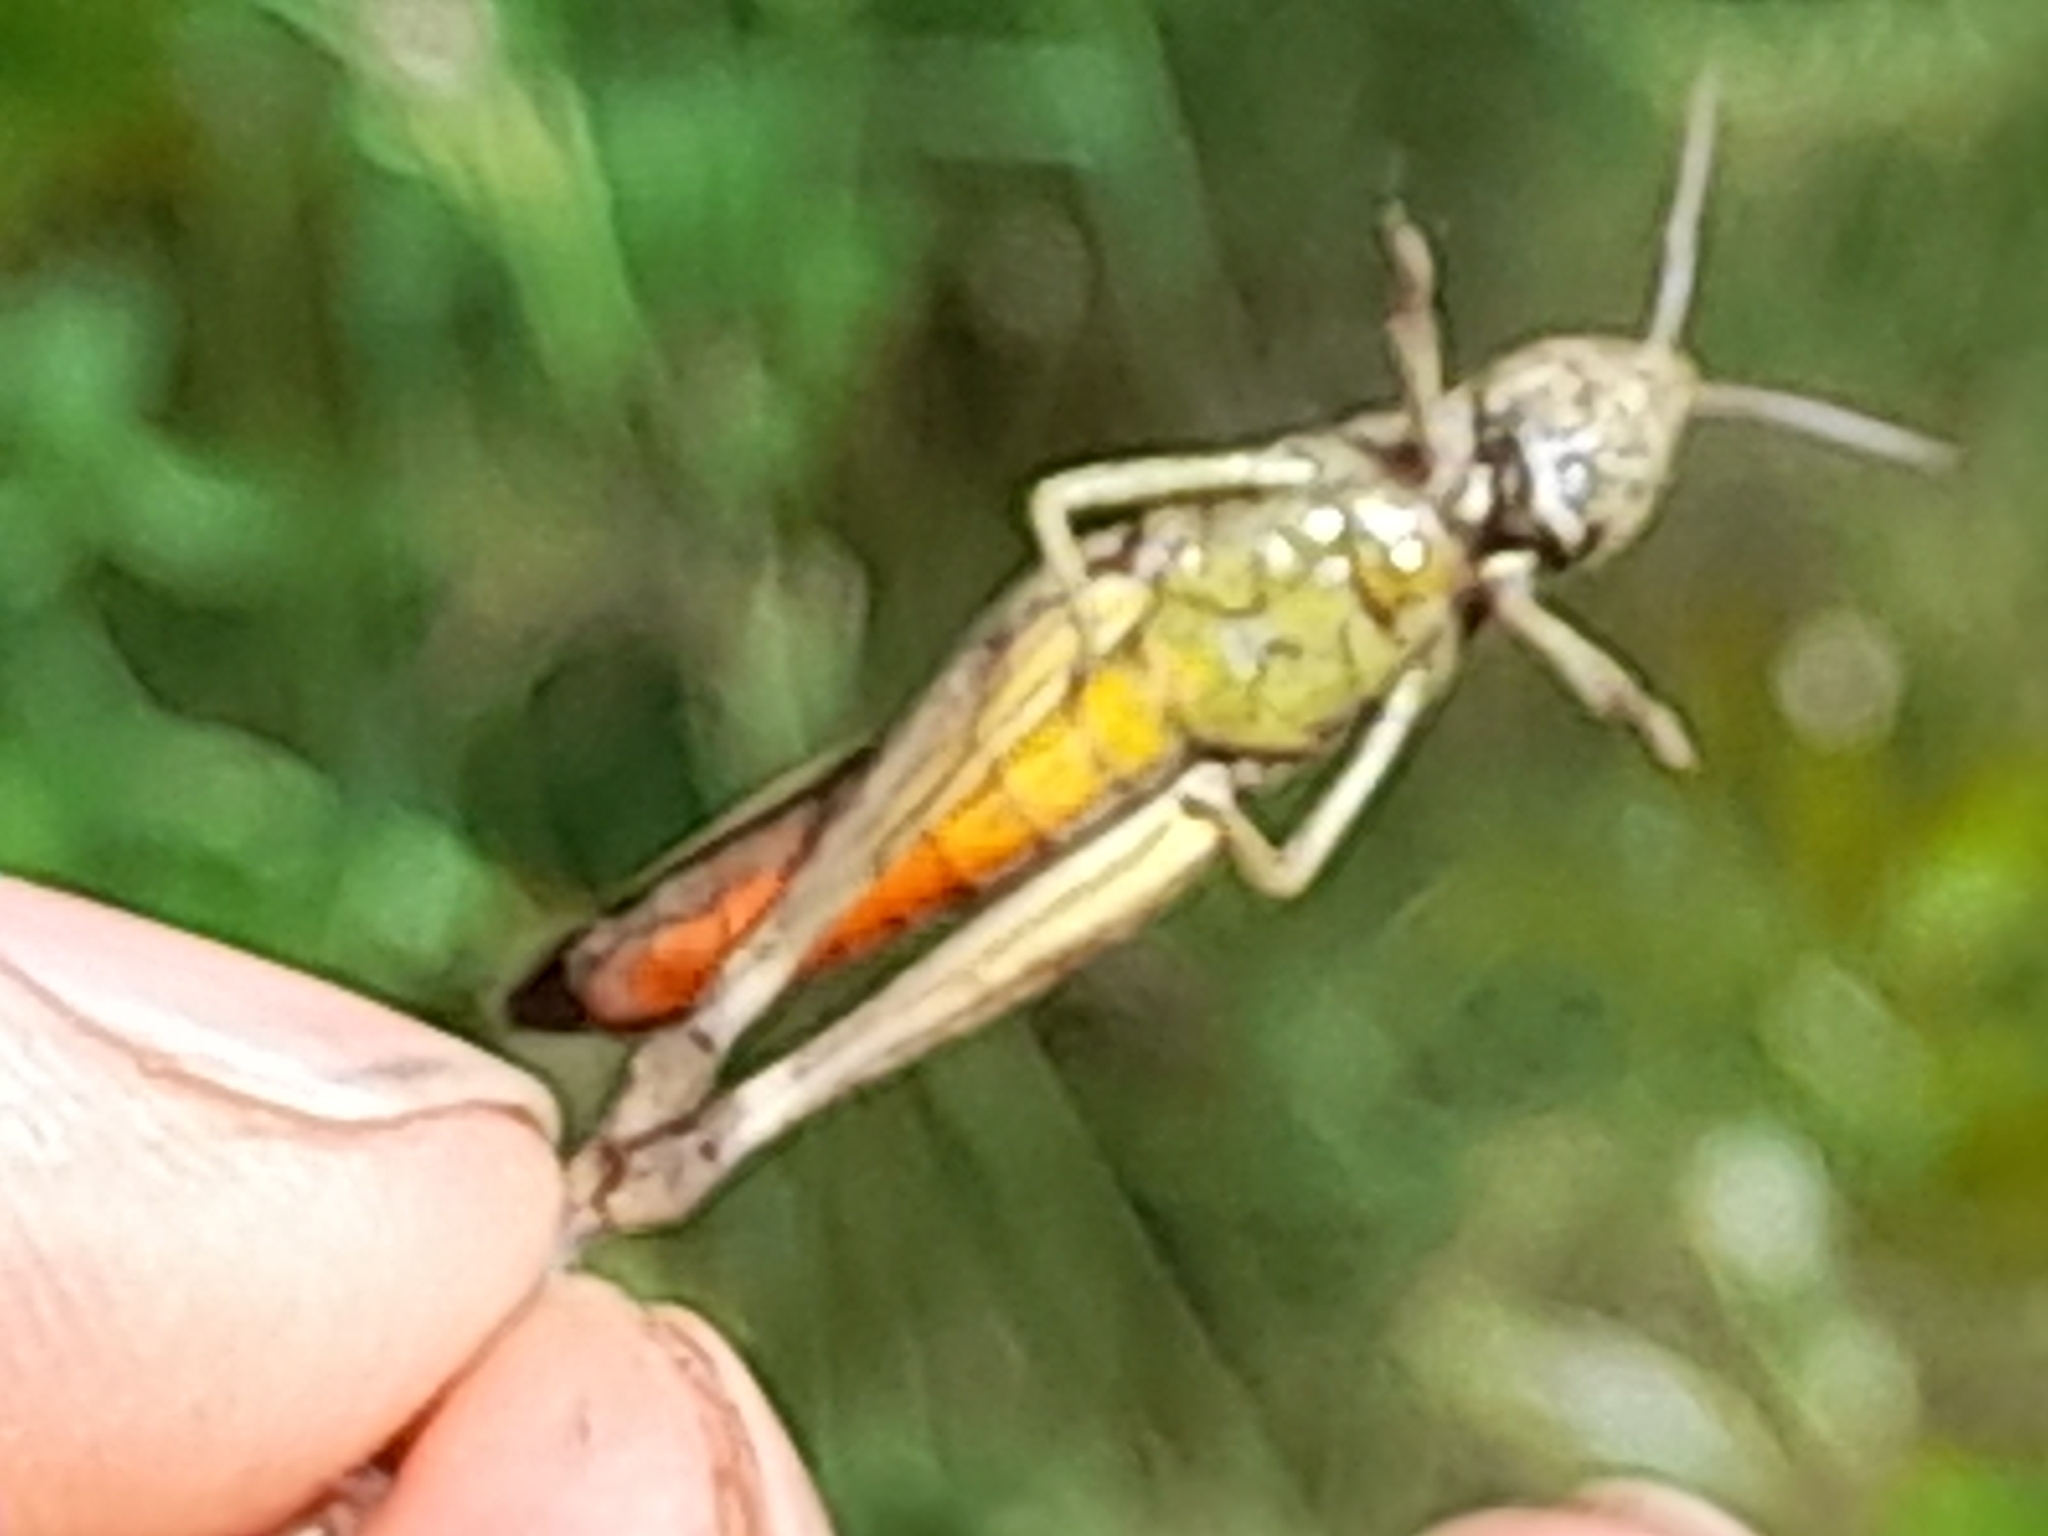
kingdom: Animalia
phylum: Arthropoda
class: Insecta
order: Orthoptera
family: Acrididae
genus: Omocestus
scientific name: Omocestus rufipes
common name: Woodland grasshopper
